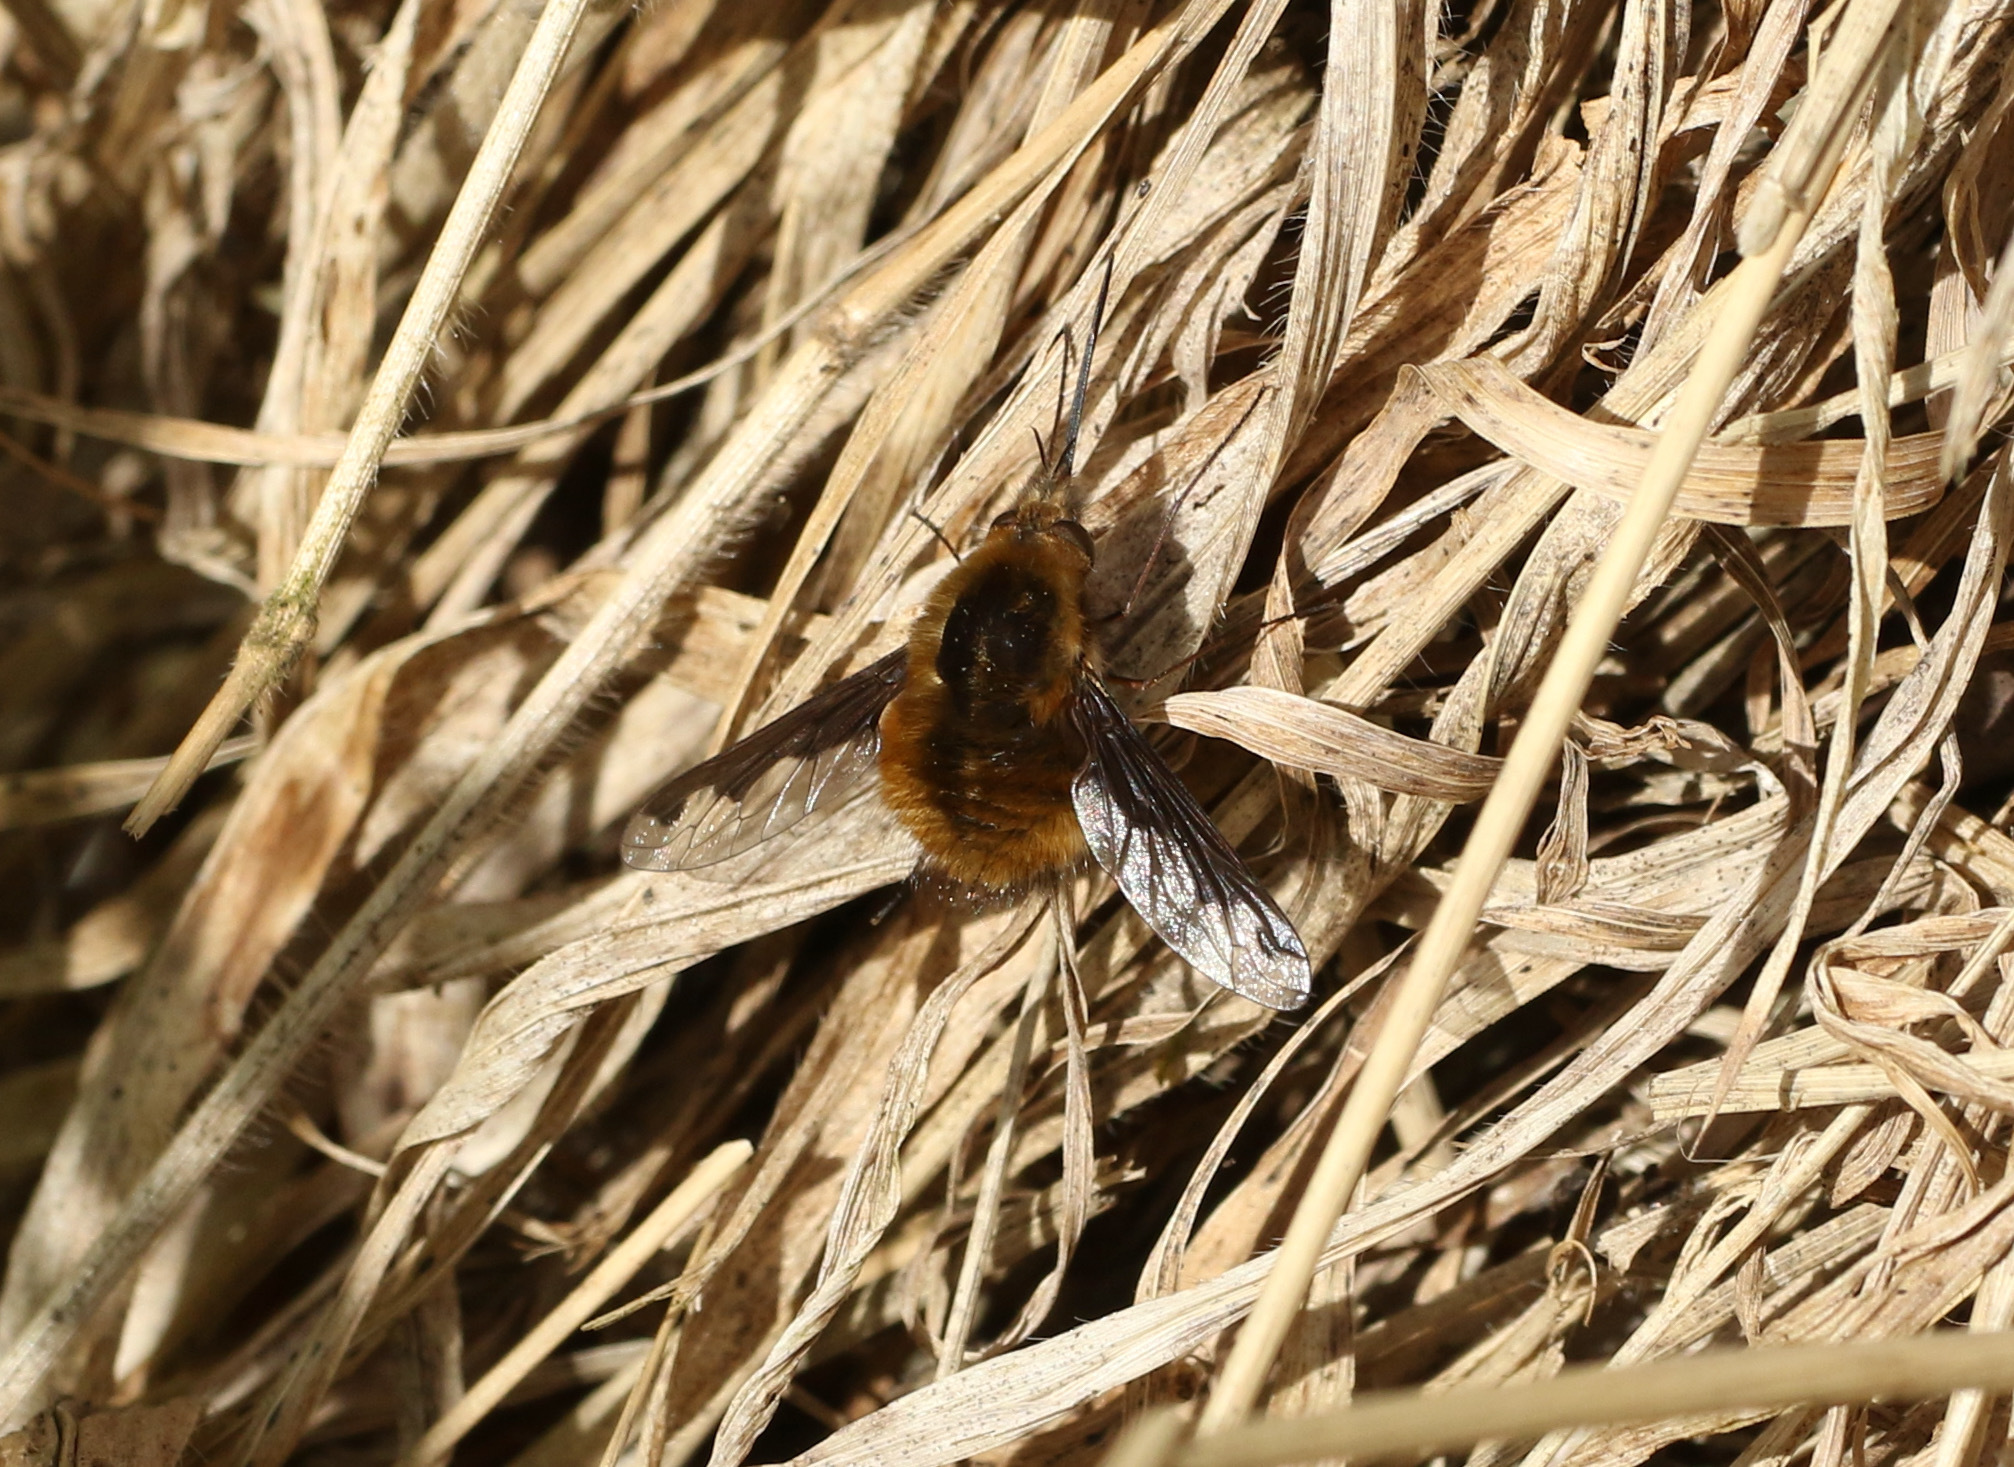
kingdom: Animalia
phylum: Arthropoda
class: Insecta
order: Diptera
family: Bombyliidae
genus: Bombylius
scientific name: Bombylius major
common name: Bee fly
